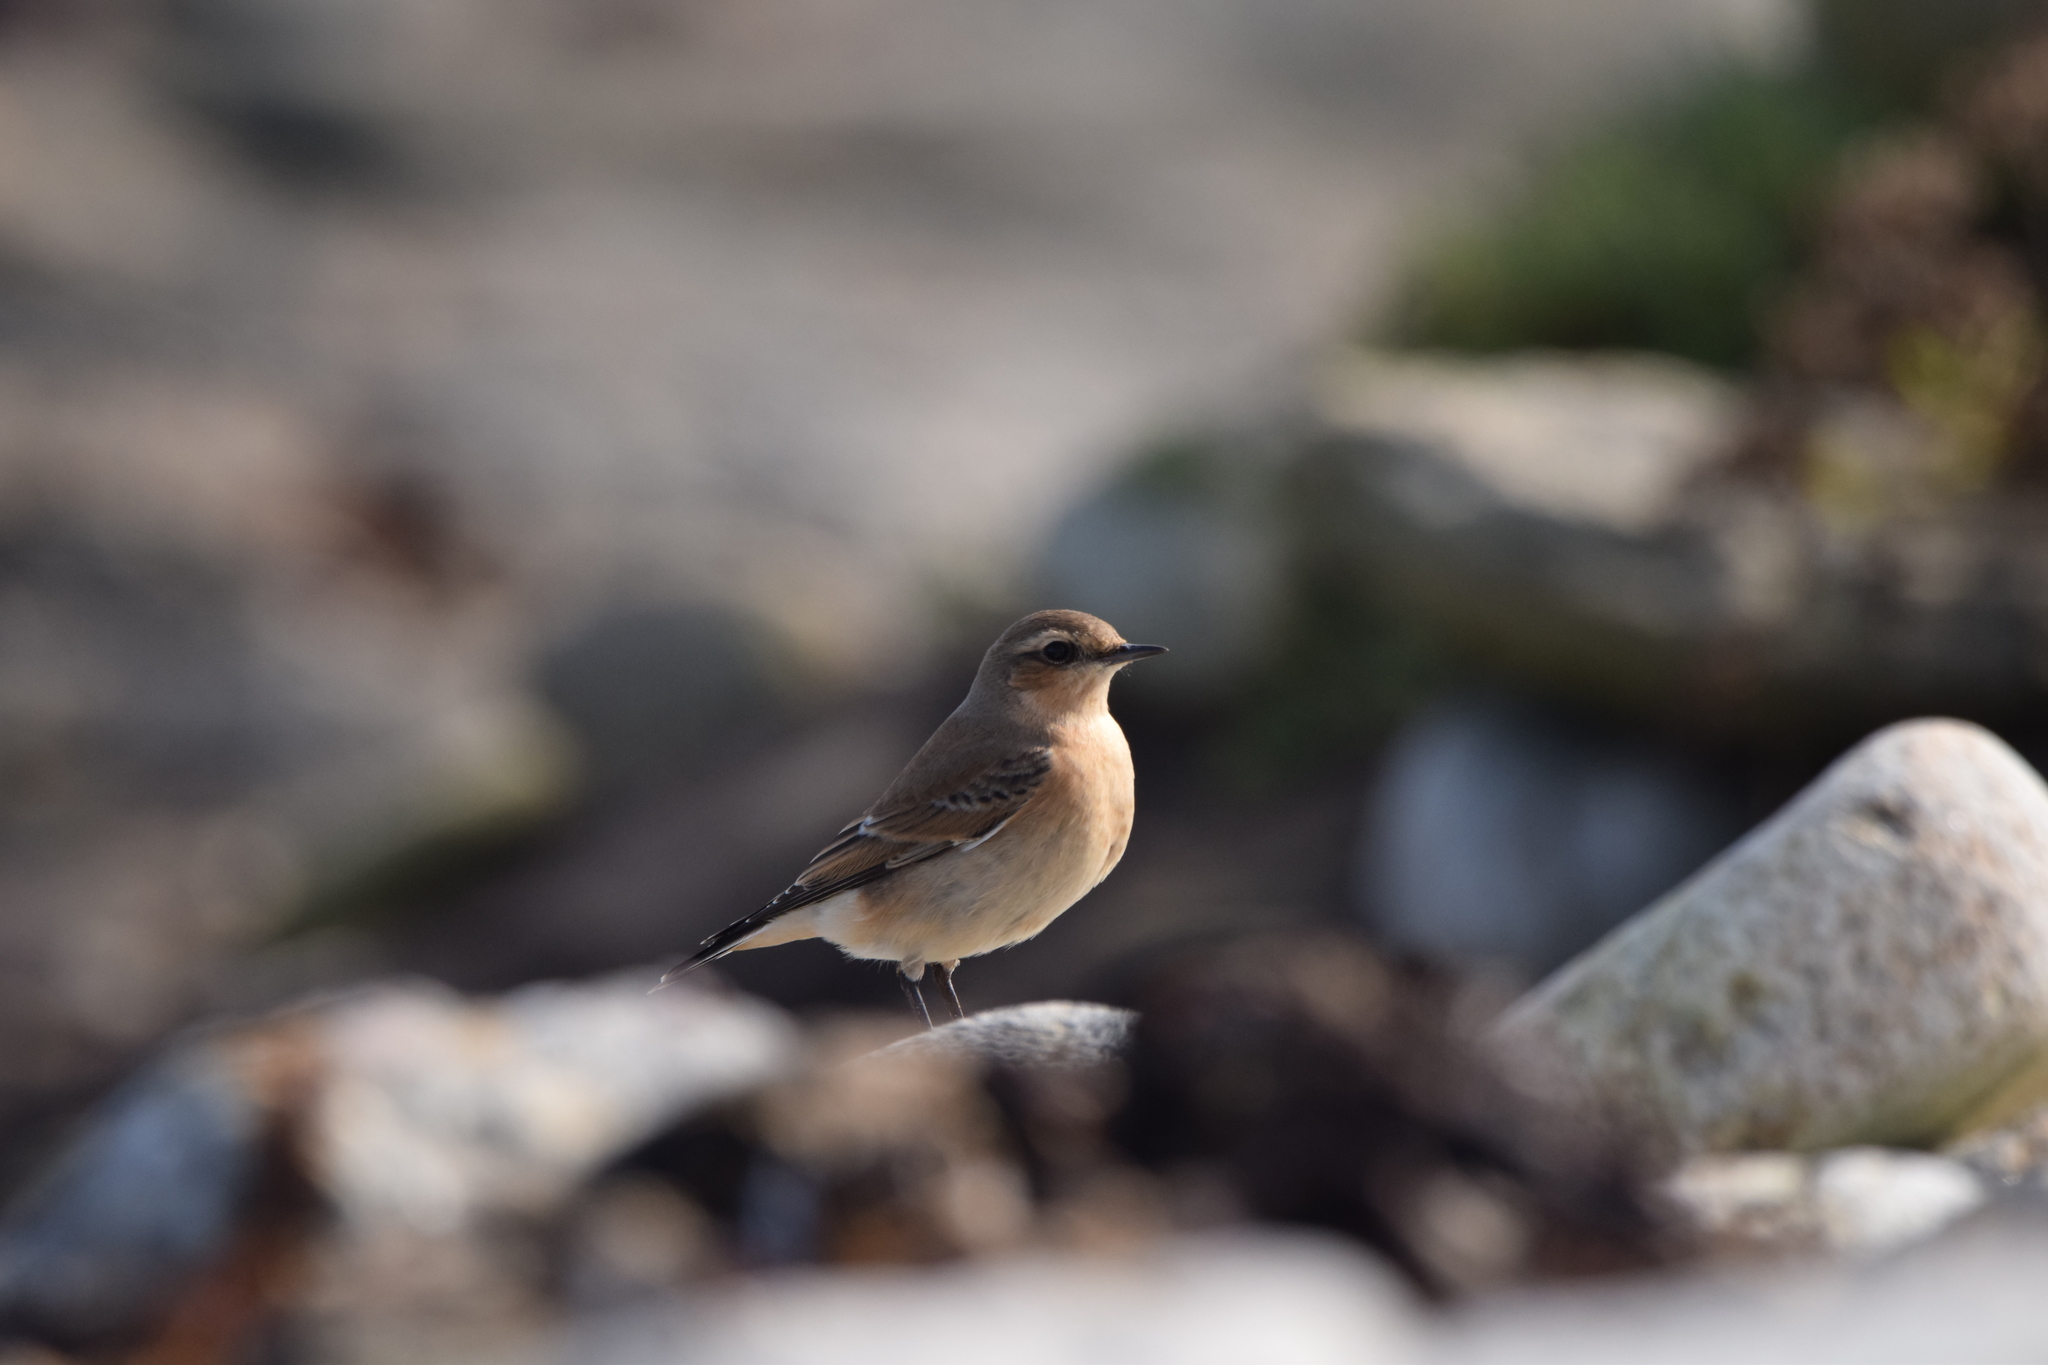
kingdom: Animalia
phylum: Chordata
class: Aves
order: Passeriformes
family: Muscicapidae
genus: Oenanthe
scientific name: Oenanthe oenanthe
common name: Northern wheatear
